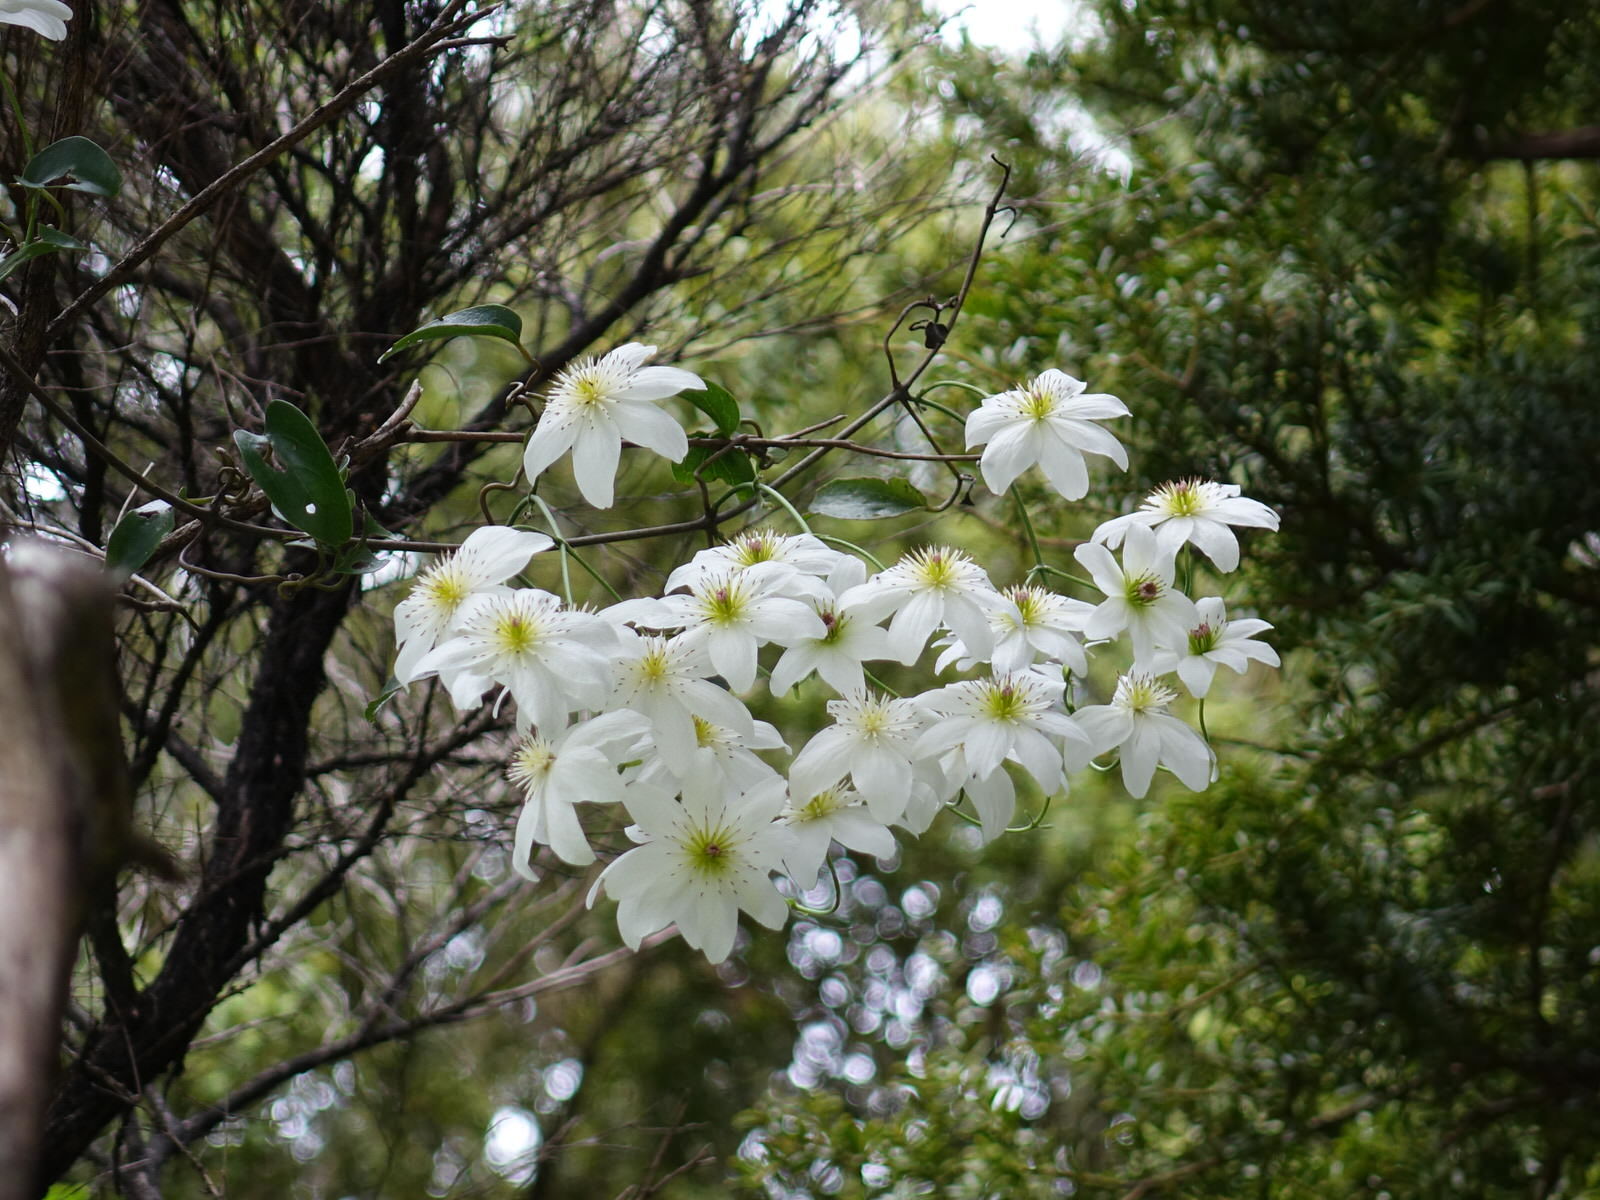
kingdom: Plantae
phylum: Tracheophyta
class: Magnoliopsida
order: Ranunculales
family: Ranunculaceae
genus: Clematis
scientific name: Clematis paniculata
